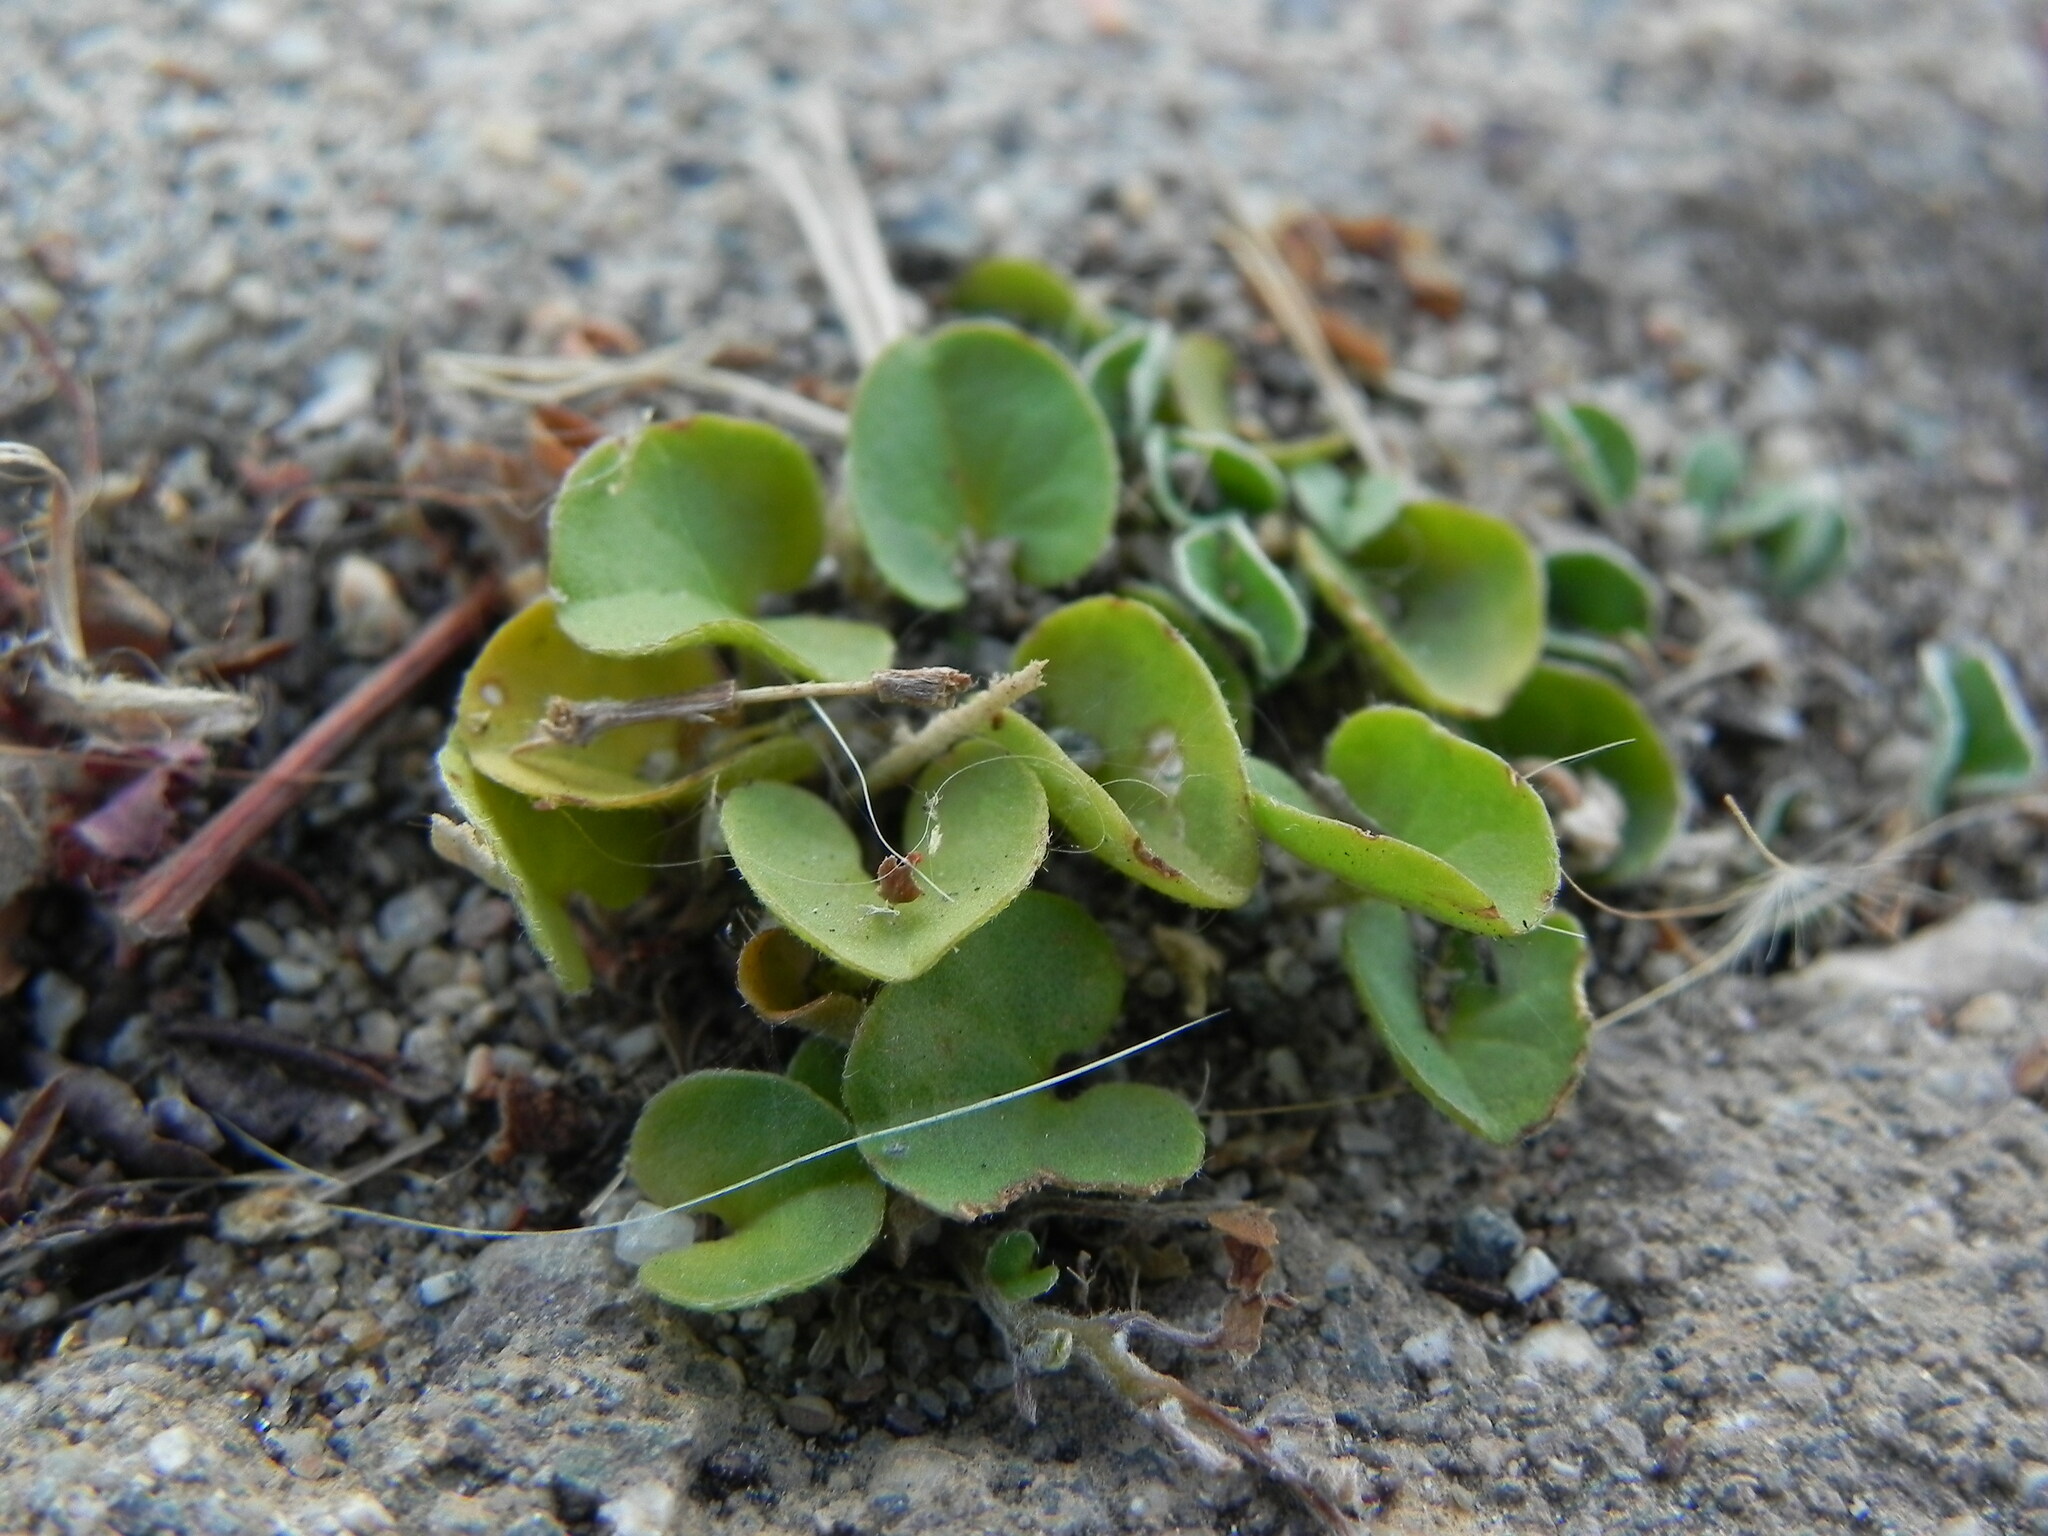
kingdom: Plantae
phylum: Tracheophyta
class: Magnoliopsida
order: Solanales
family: Convolvulaceae
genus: Dichondra
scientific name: Dichondra micrantha
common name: Kidneyweed
